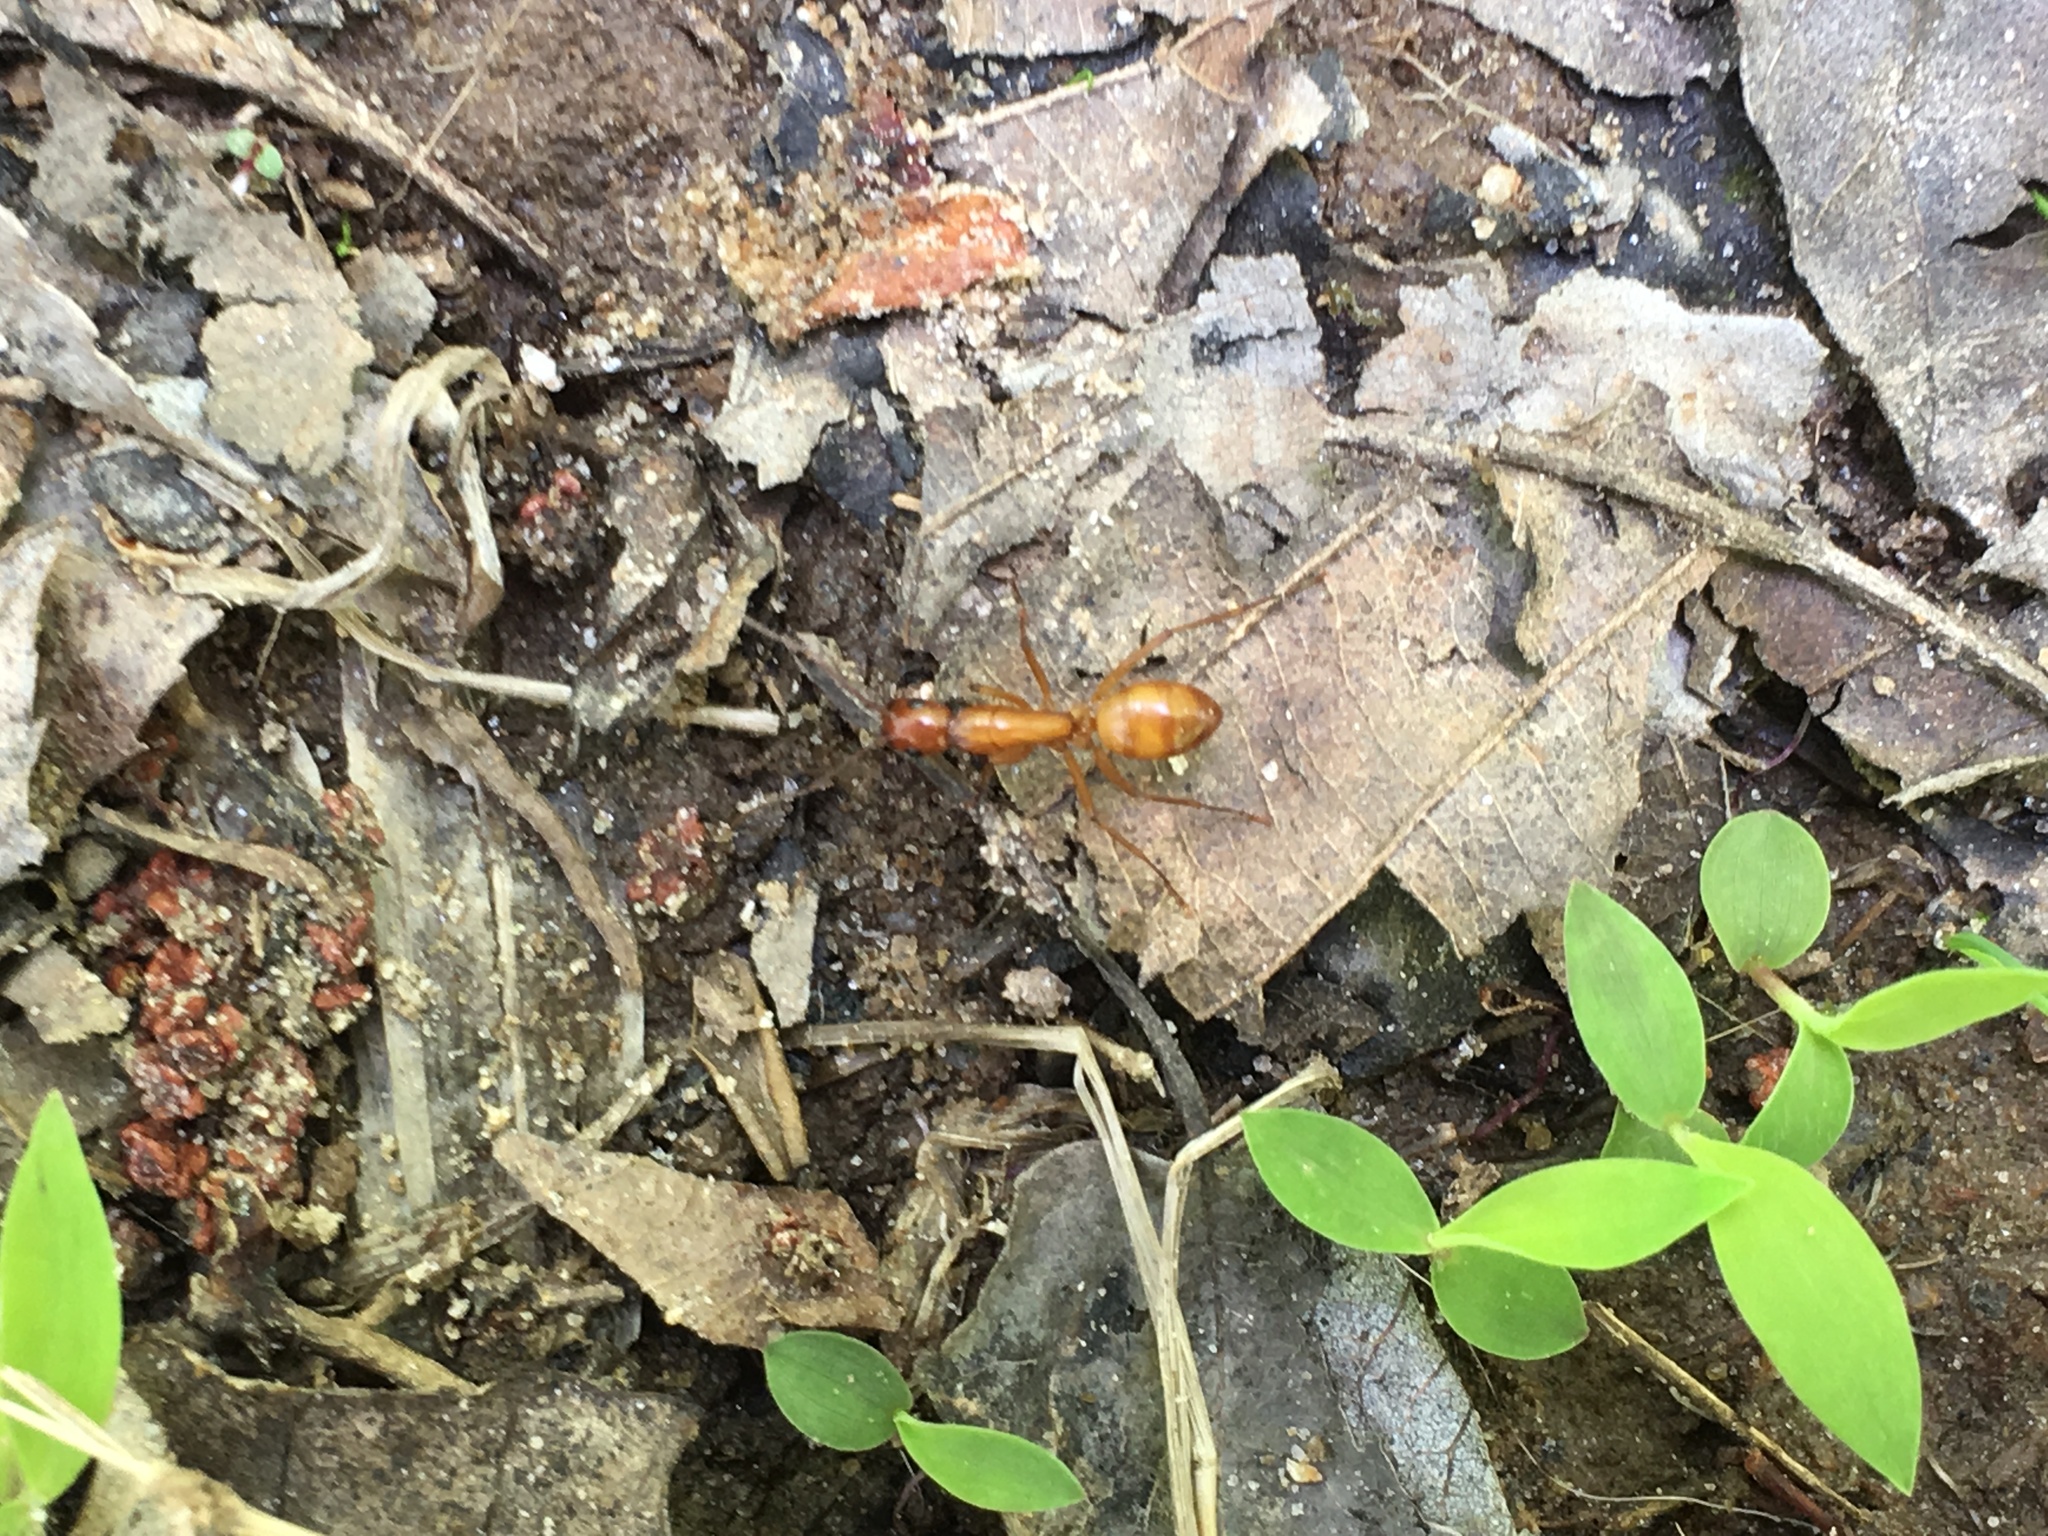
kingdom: Animalia
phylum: Arthropoda
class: Insecta
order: Hymenoptera
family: Formicidae
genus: Camponotus
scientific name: Camponotus castaneus
